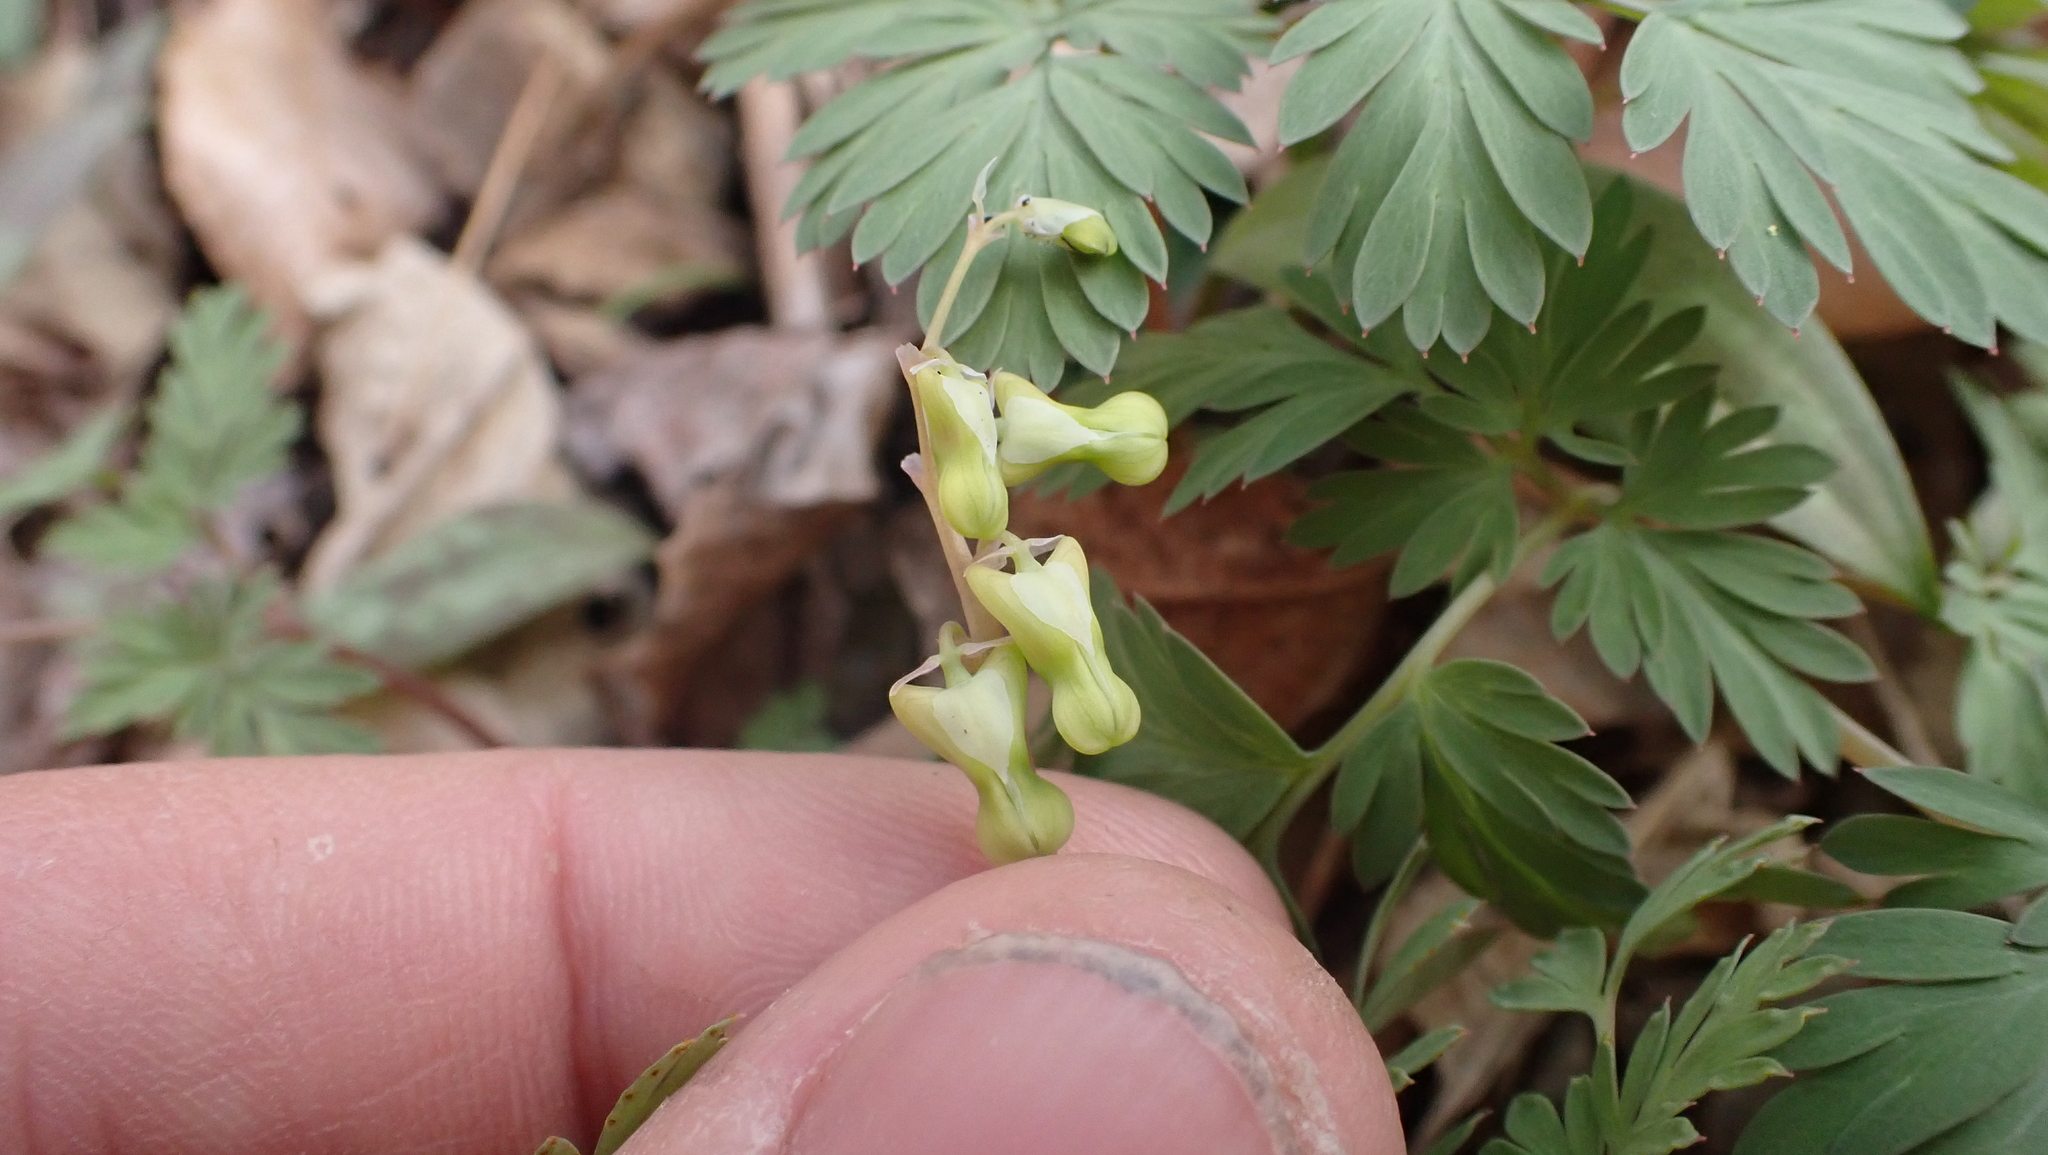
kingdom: Plantae
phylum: Tracheophyta
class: Magnoliopsida
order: Ranunculales
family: Papaveraceae
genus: Dicentra
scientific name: Dicentra cucullaria
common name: Dutchman's breeches
